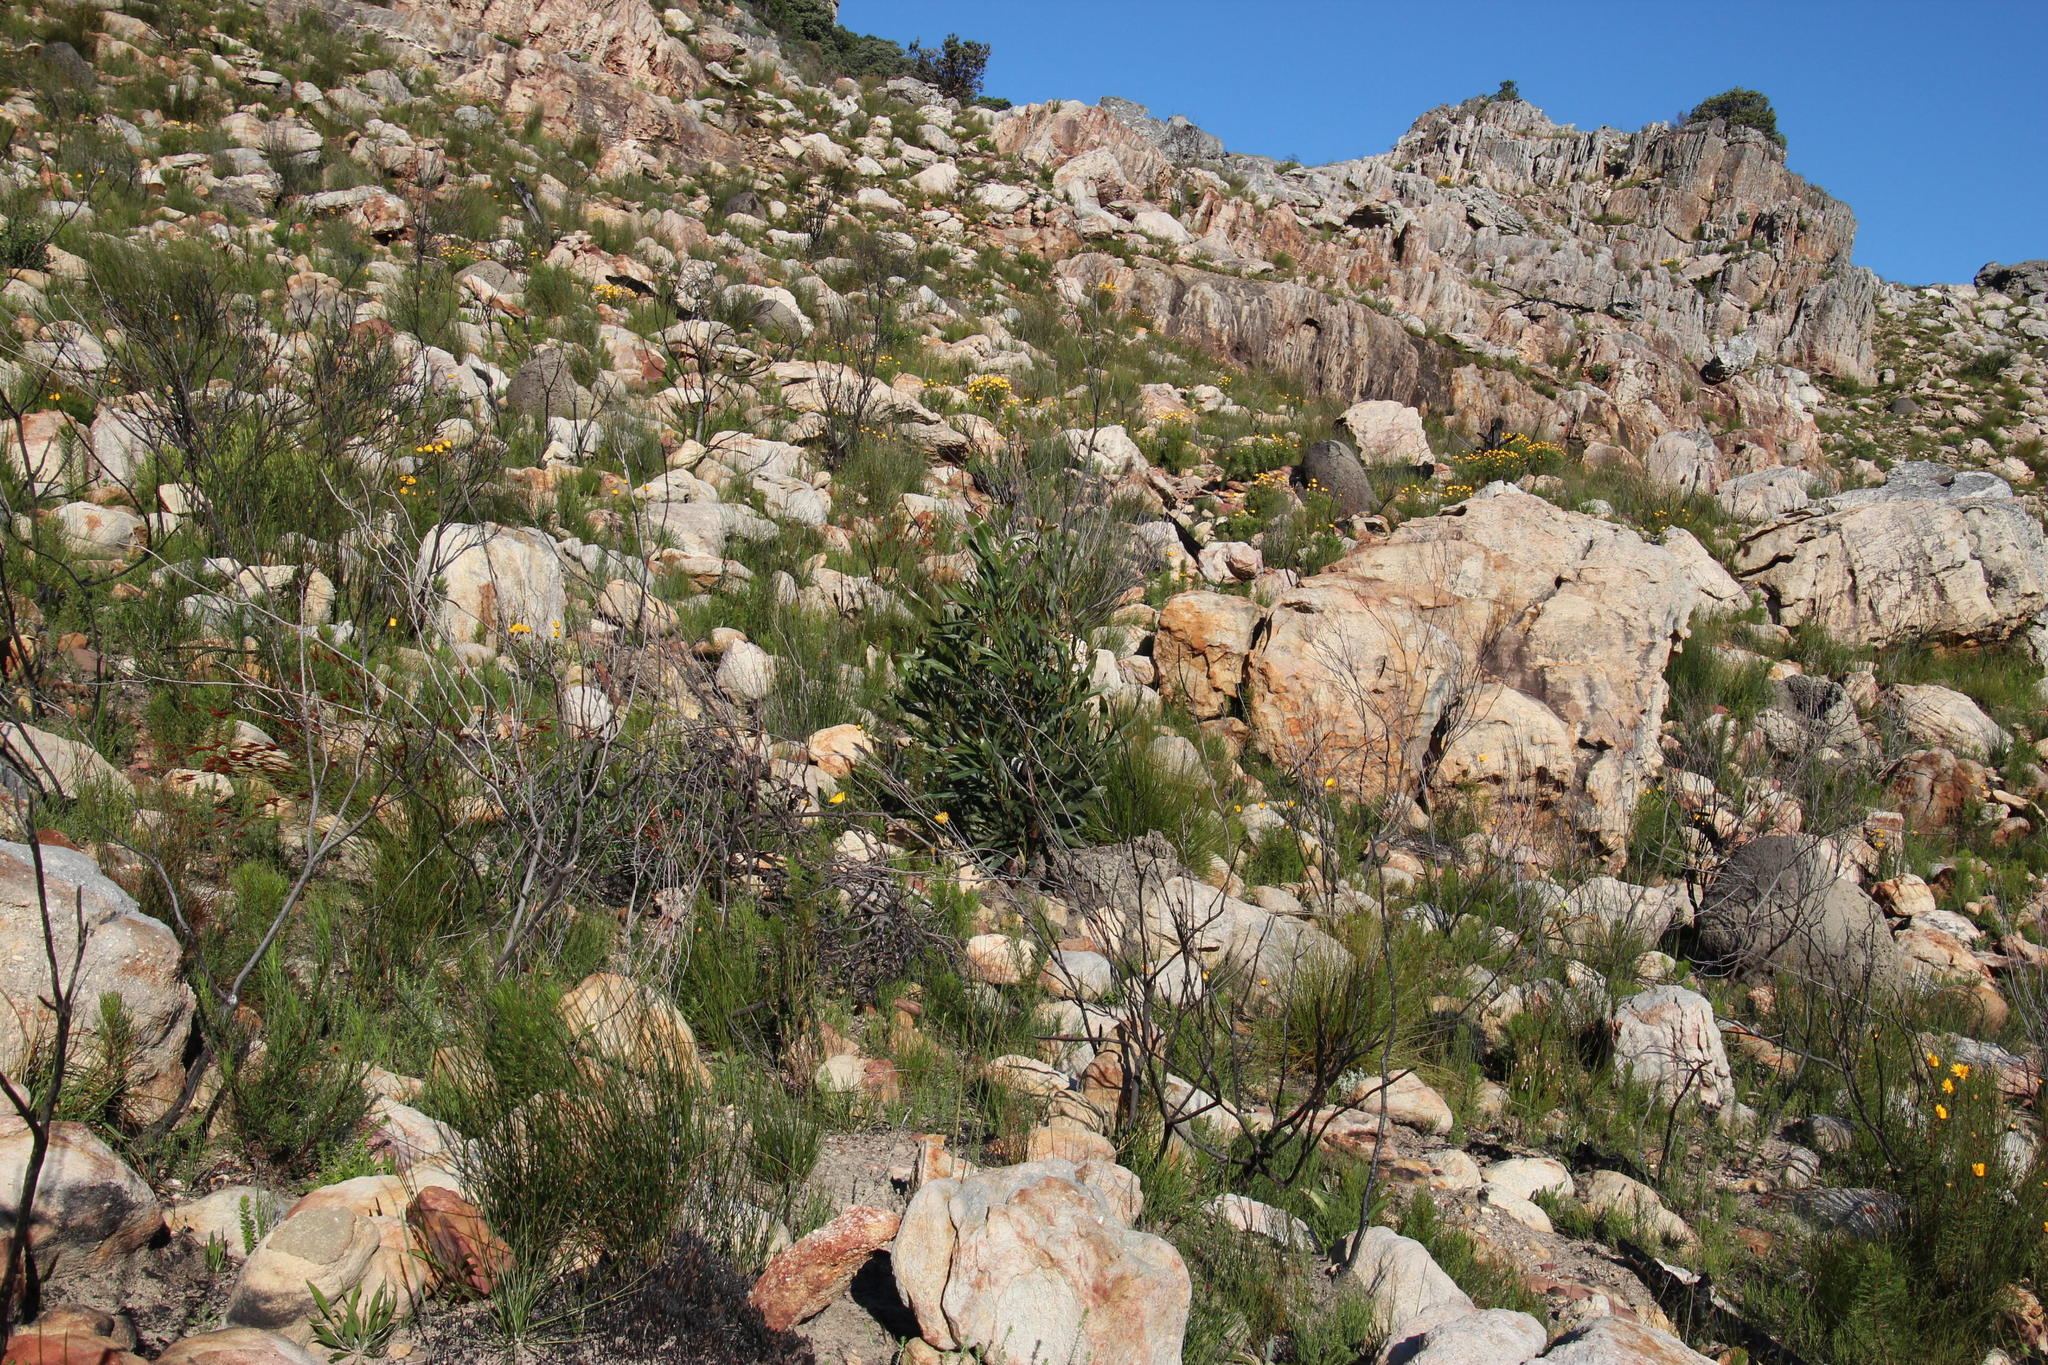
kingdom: Plantae
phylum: Tracheophyta
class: Magnoliopsida
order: Fabales
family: Fabaceae
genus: Acacia
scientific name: Acacia saligna
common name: Orange wattle
